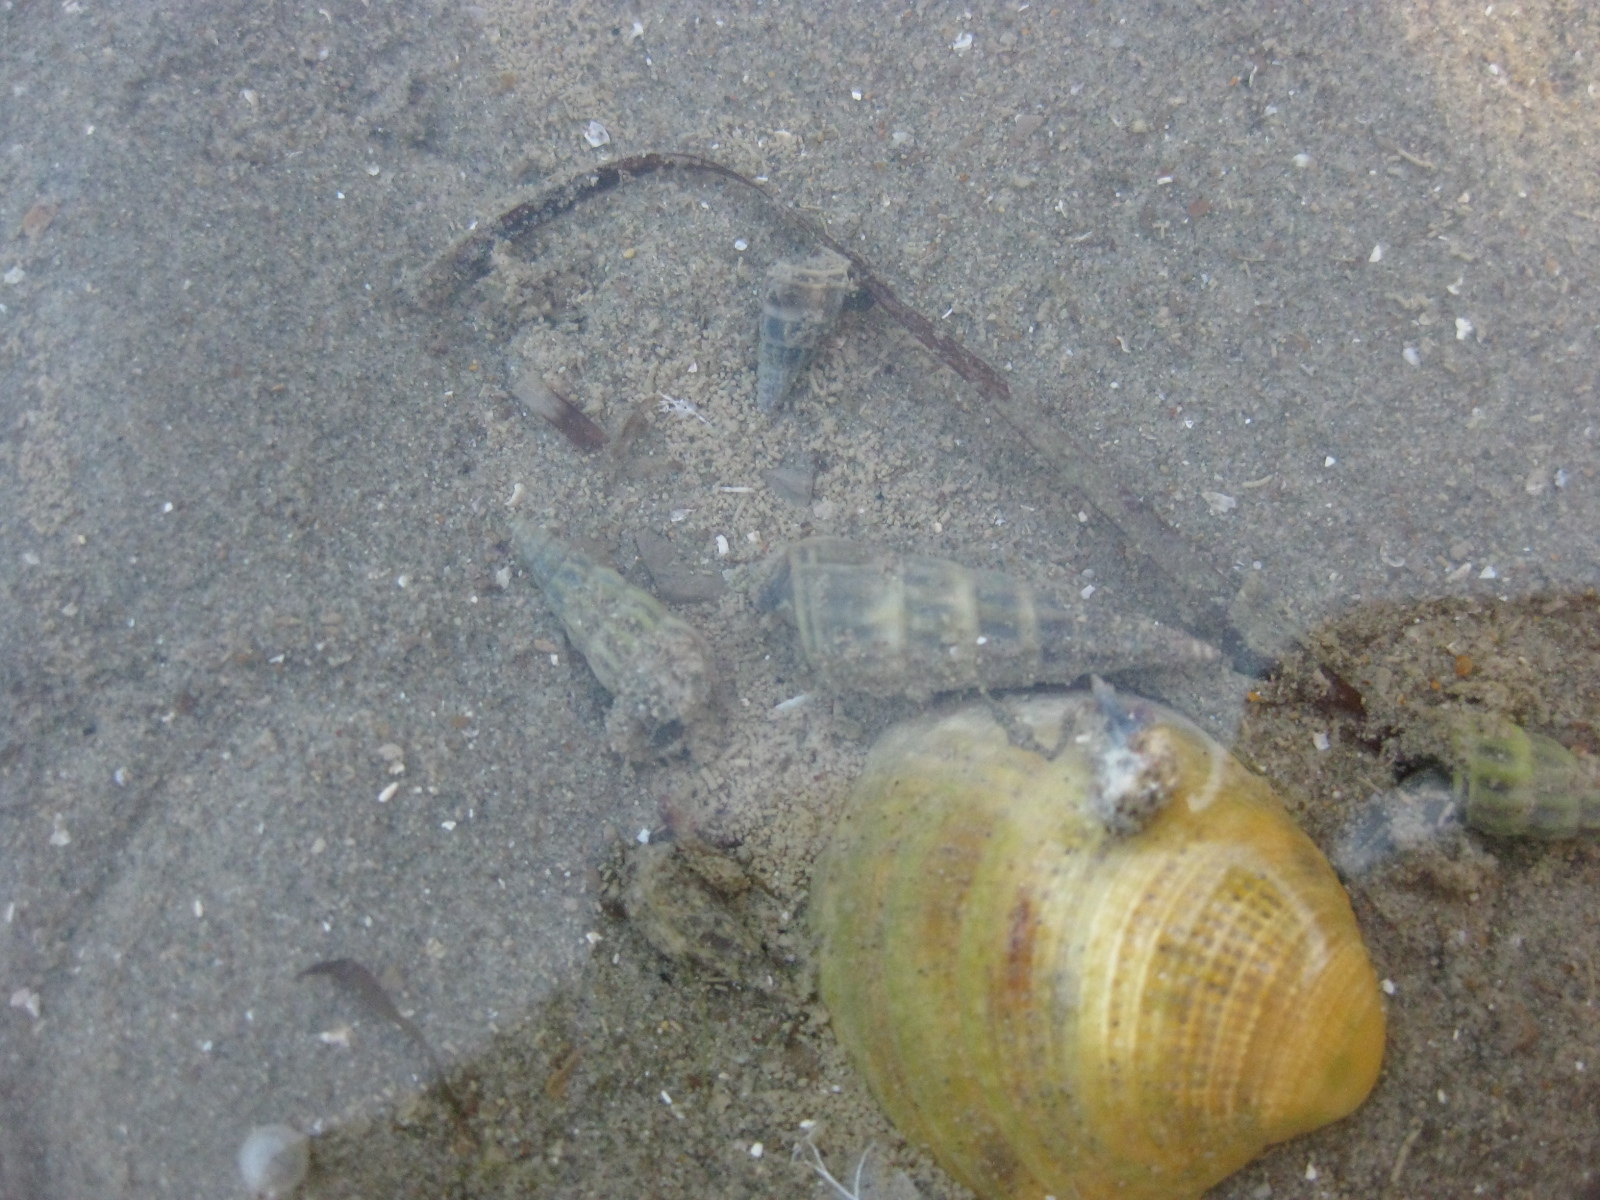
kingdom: Animalia
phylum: Mollusca
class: Gastropoda
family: Batillariidae
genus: Zeacumantus
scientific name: Zeacumantus lutulentus
